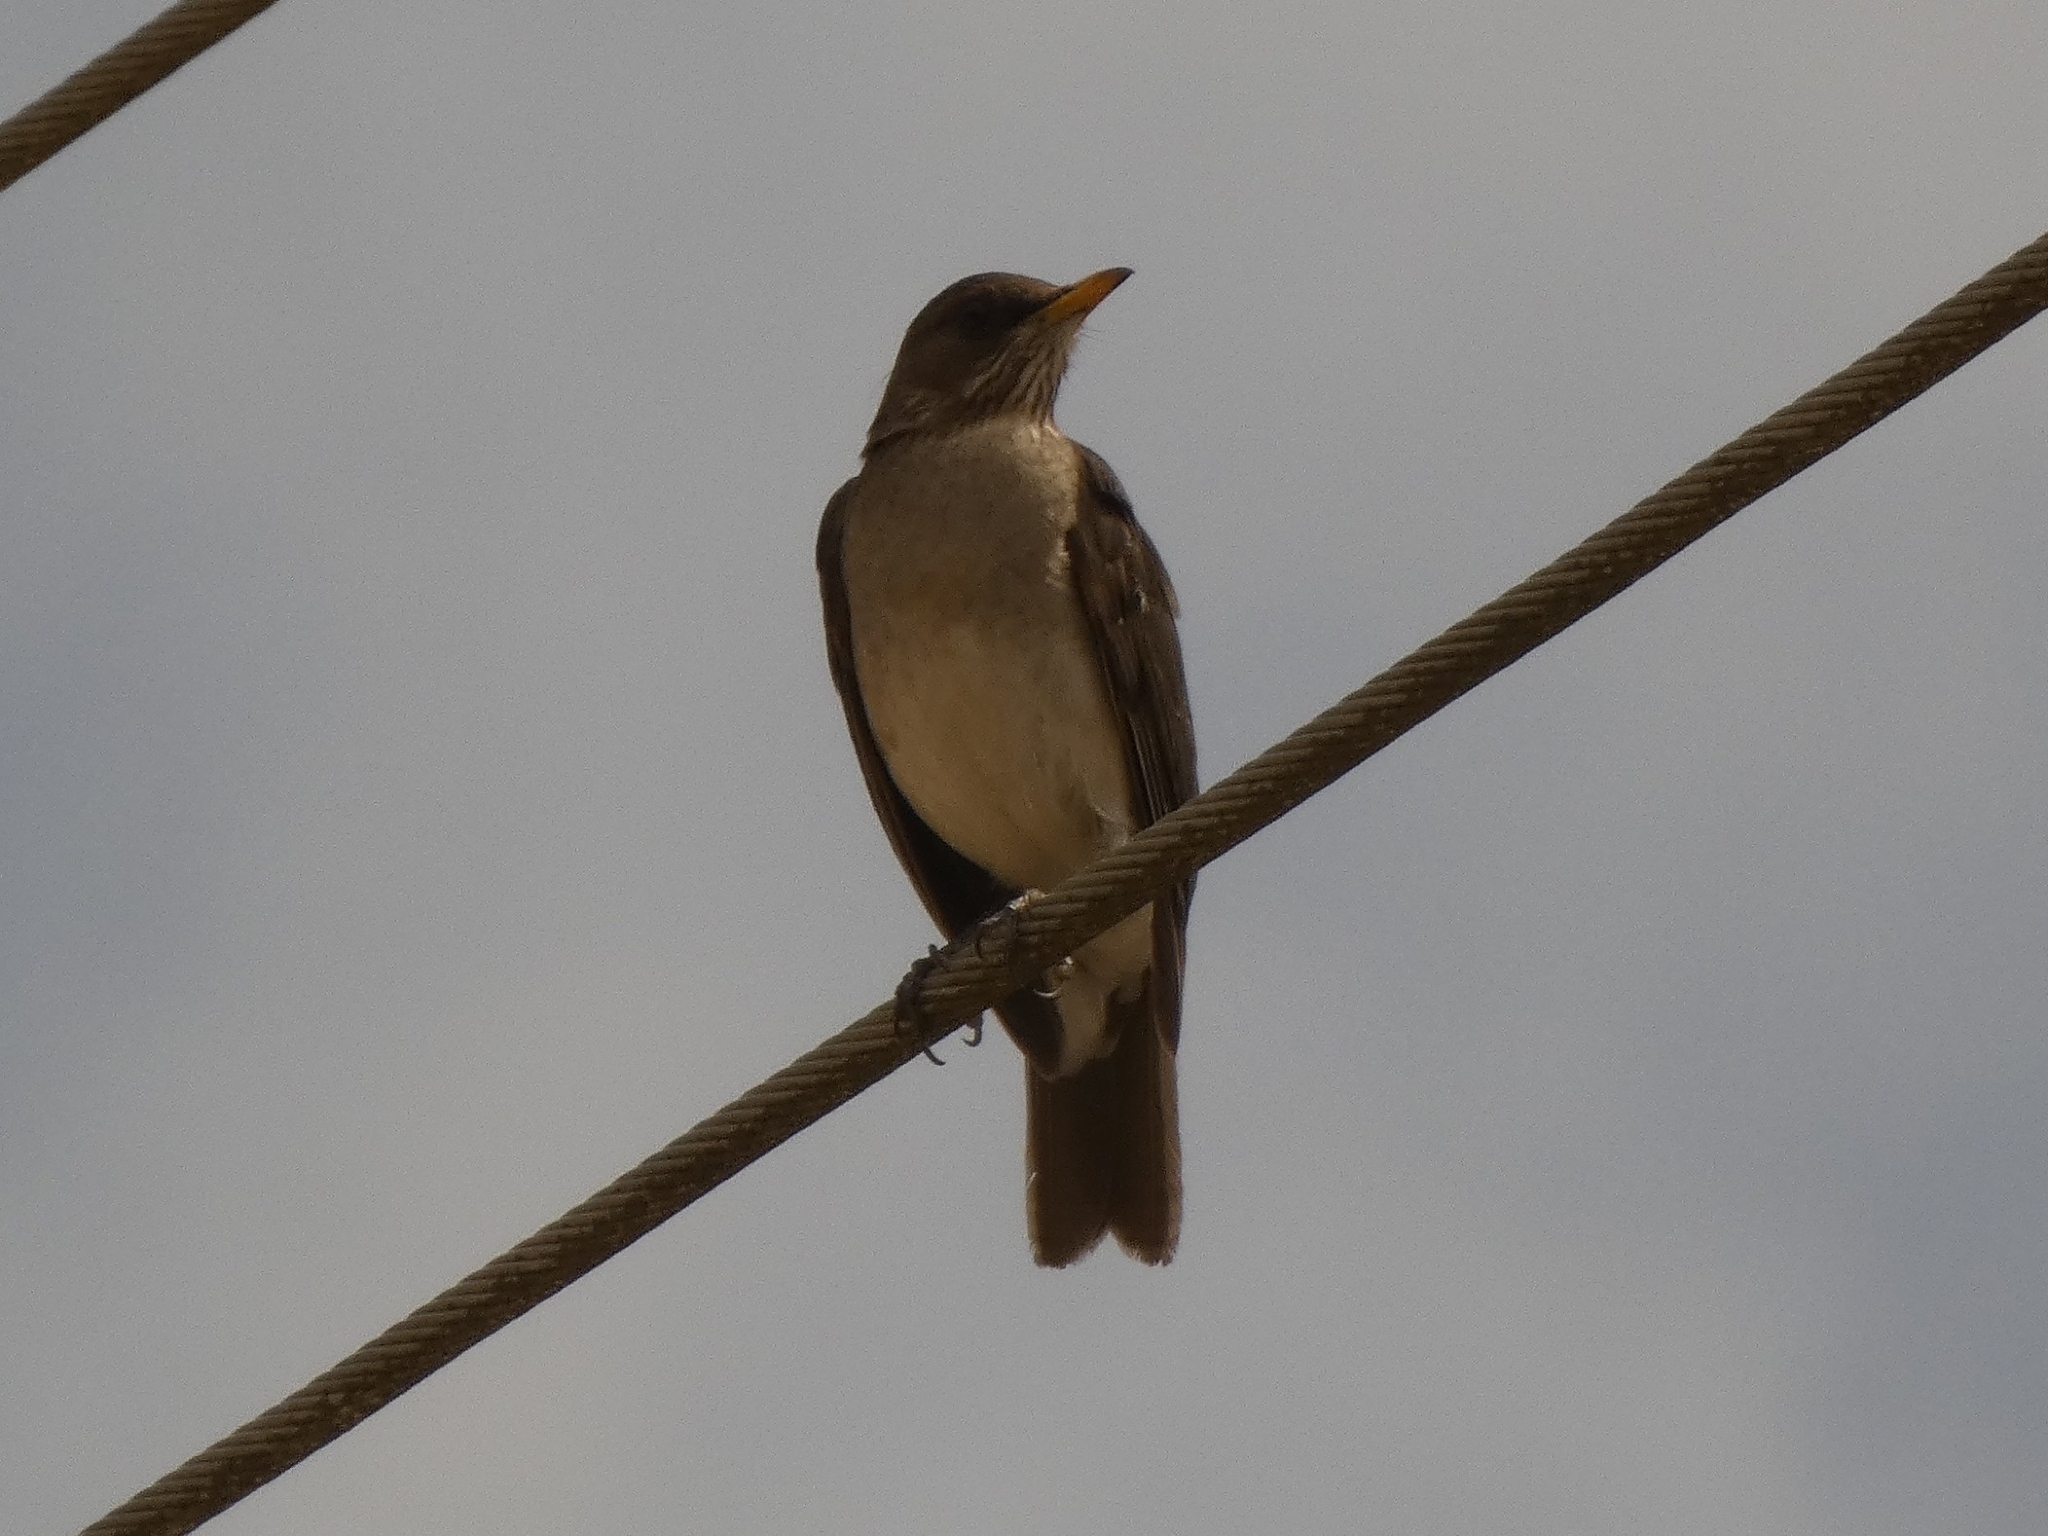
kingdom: Animalia
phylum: Chordata
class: Aves
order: Passeriformes
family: Turdidae
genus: Turdus
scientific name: Turdus amaurochalinus
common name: Creamy-bellied thrush
